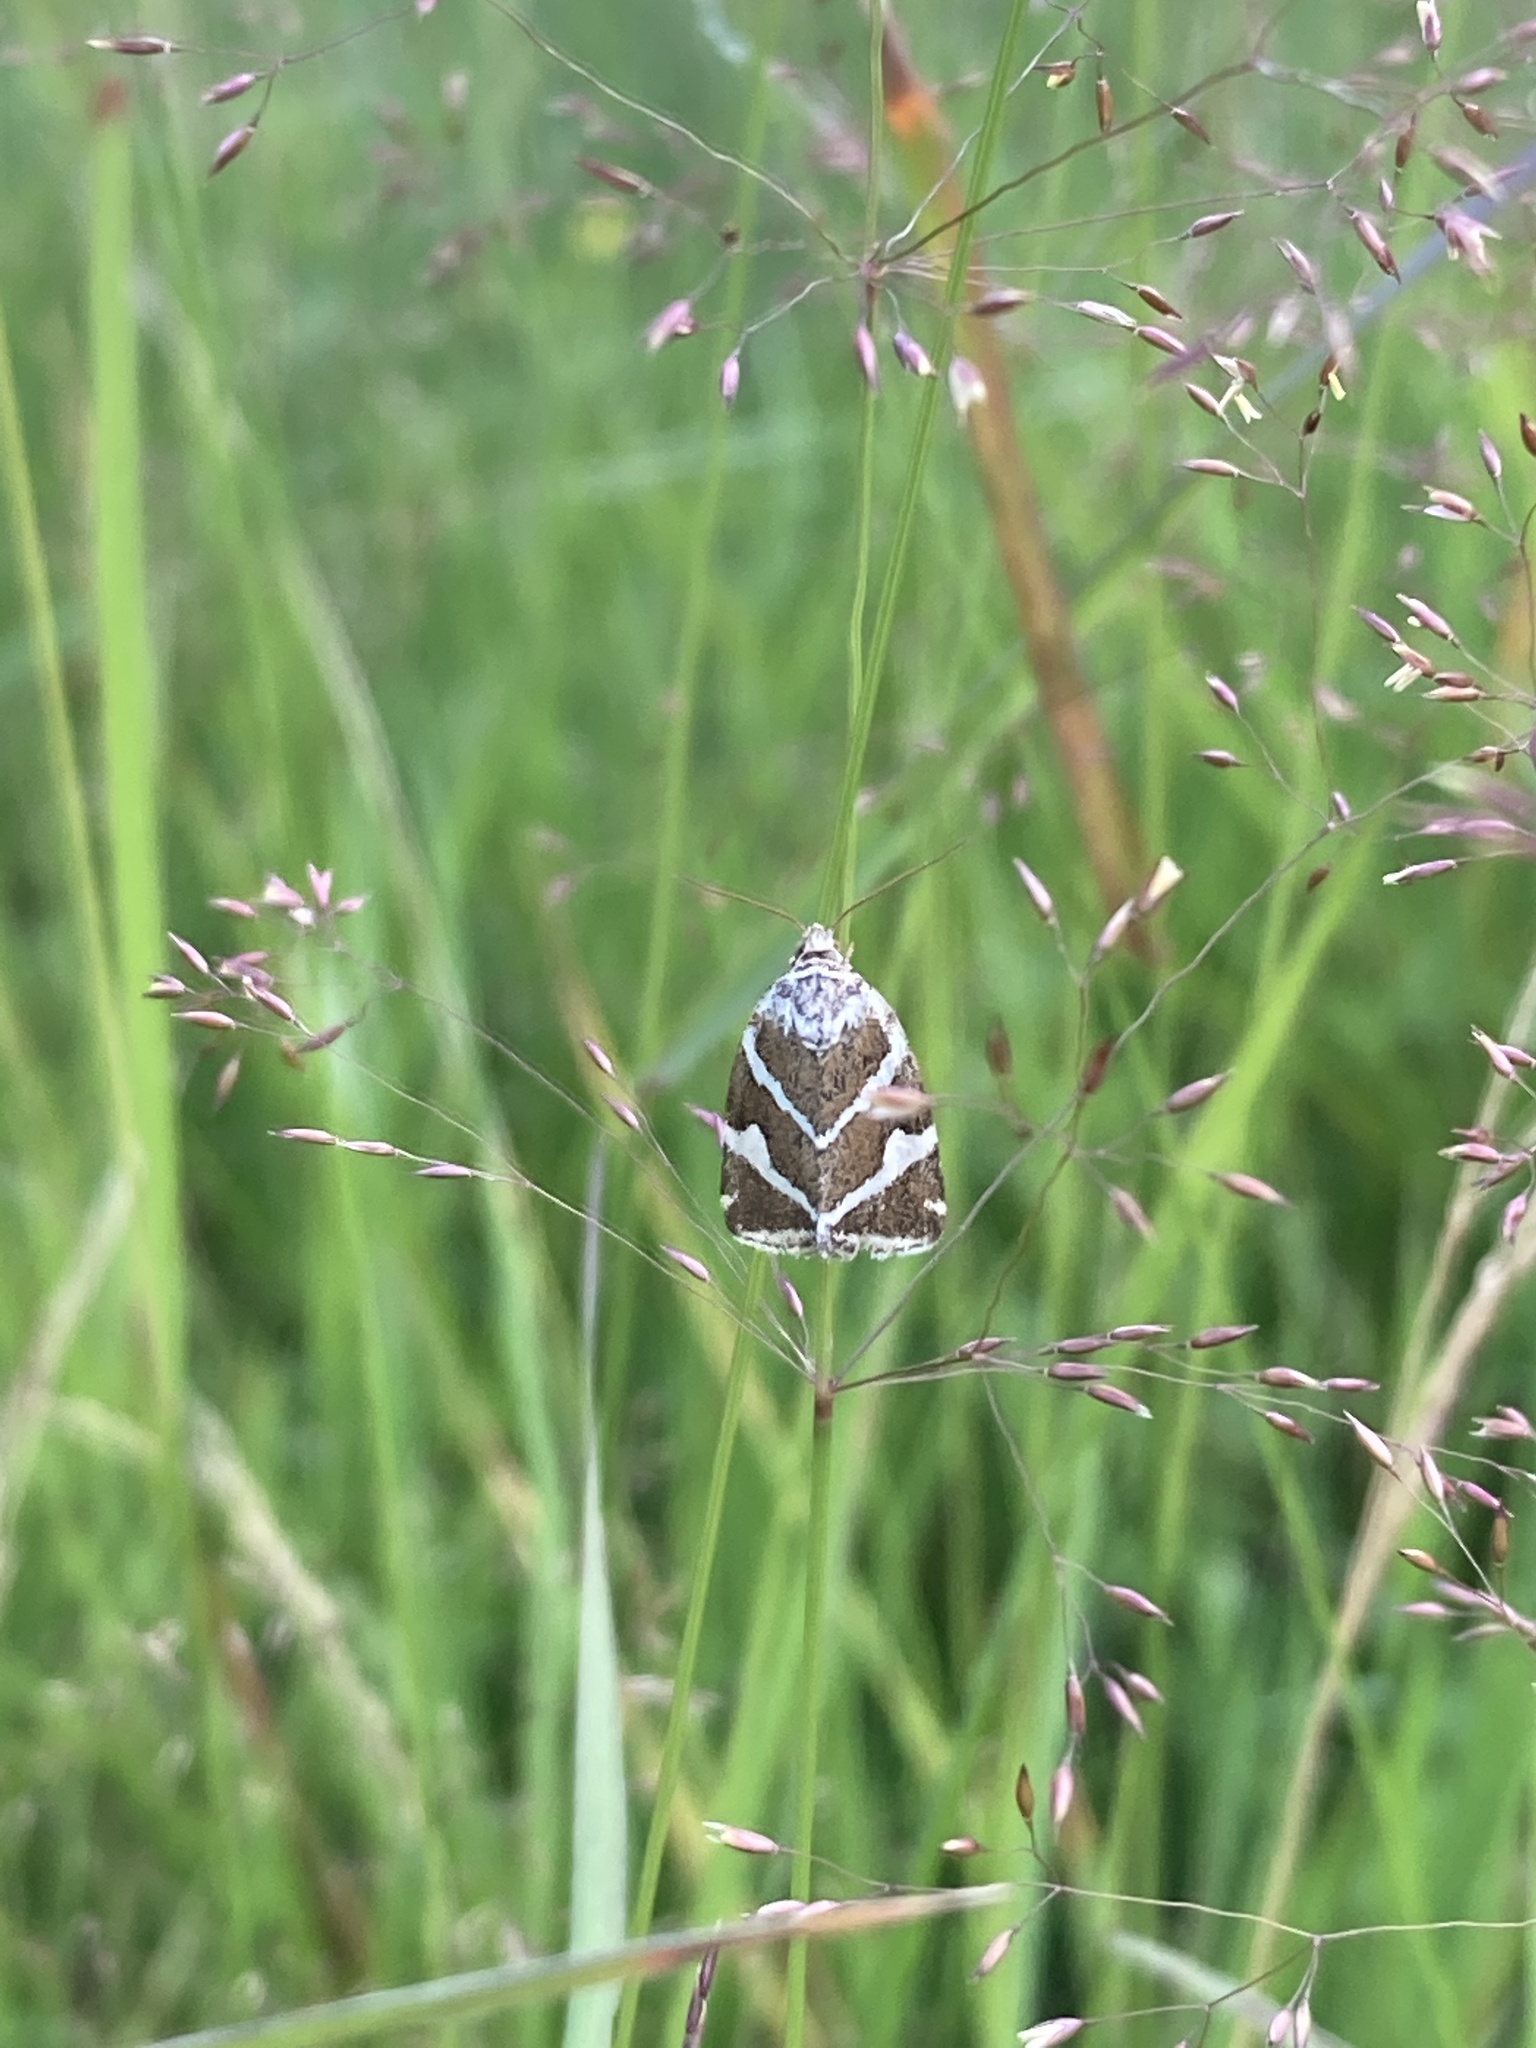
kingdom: Animalia
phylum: Arthropoda
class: Insecta
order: Lepidoptera
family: Noctuidae
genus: Deltote
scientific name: Deltote bankiana
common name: Silver barred
